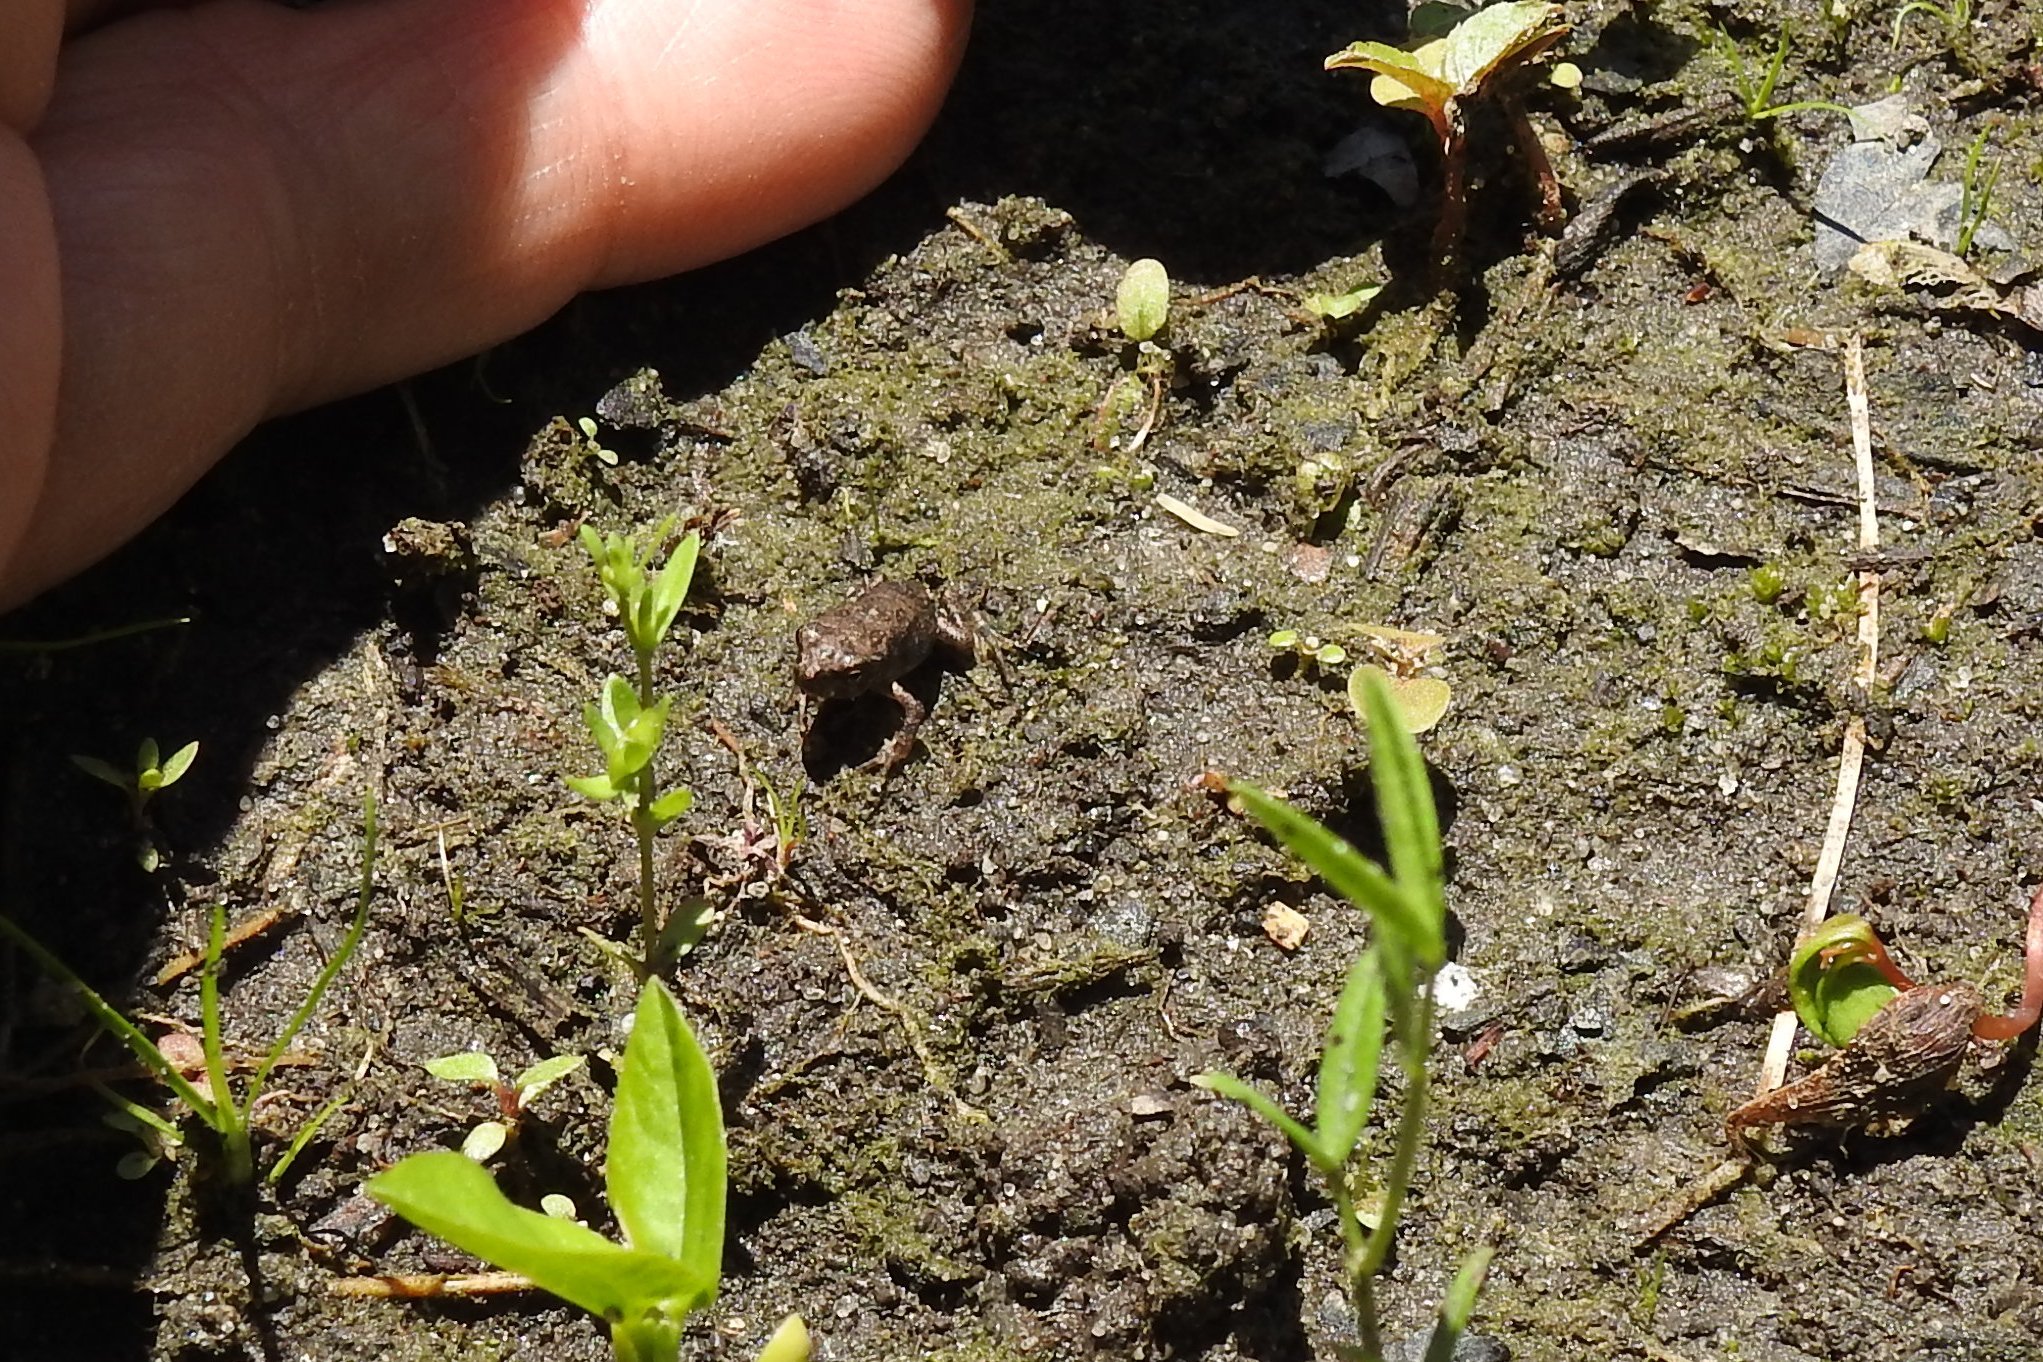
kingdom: Animalia
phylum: Chordata
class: Amphibia
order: Anura
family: Bufonidae
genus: Anaxyrus
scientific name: Anaxyrus fowleri
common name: Fowler's toad
